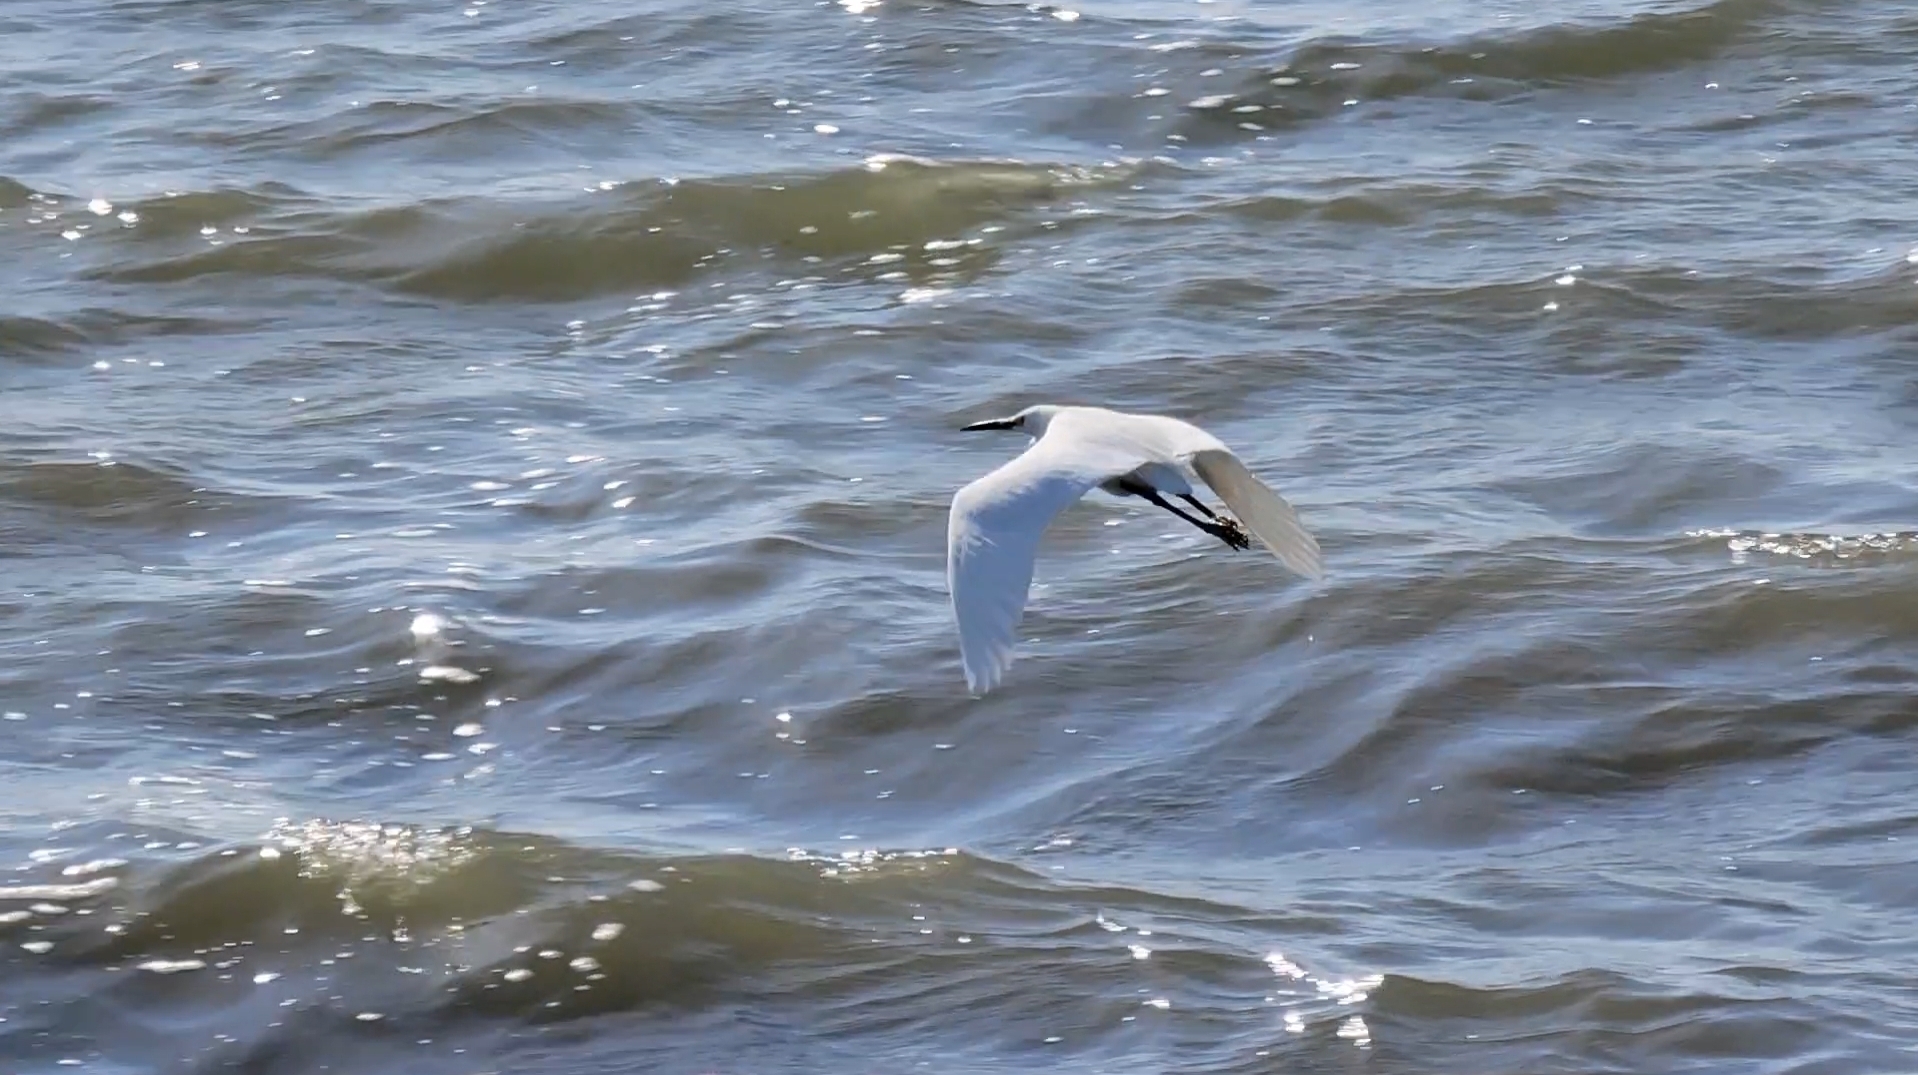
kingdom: Animalia
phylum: Chordata
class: Aves
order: Pelecaniformes
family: Ardeidae
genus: Egretta
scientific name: Egretta thula
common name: Snowy egret
